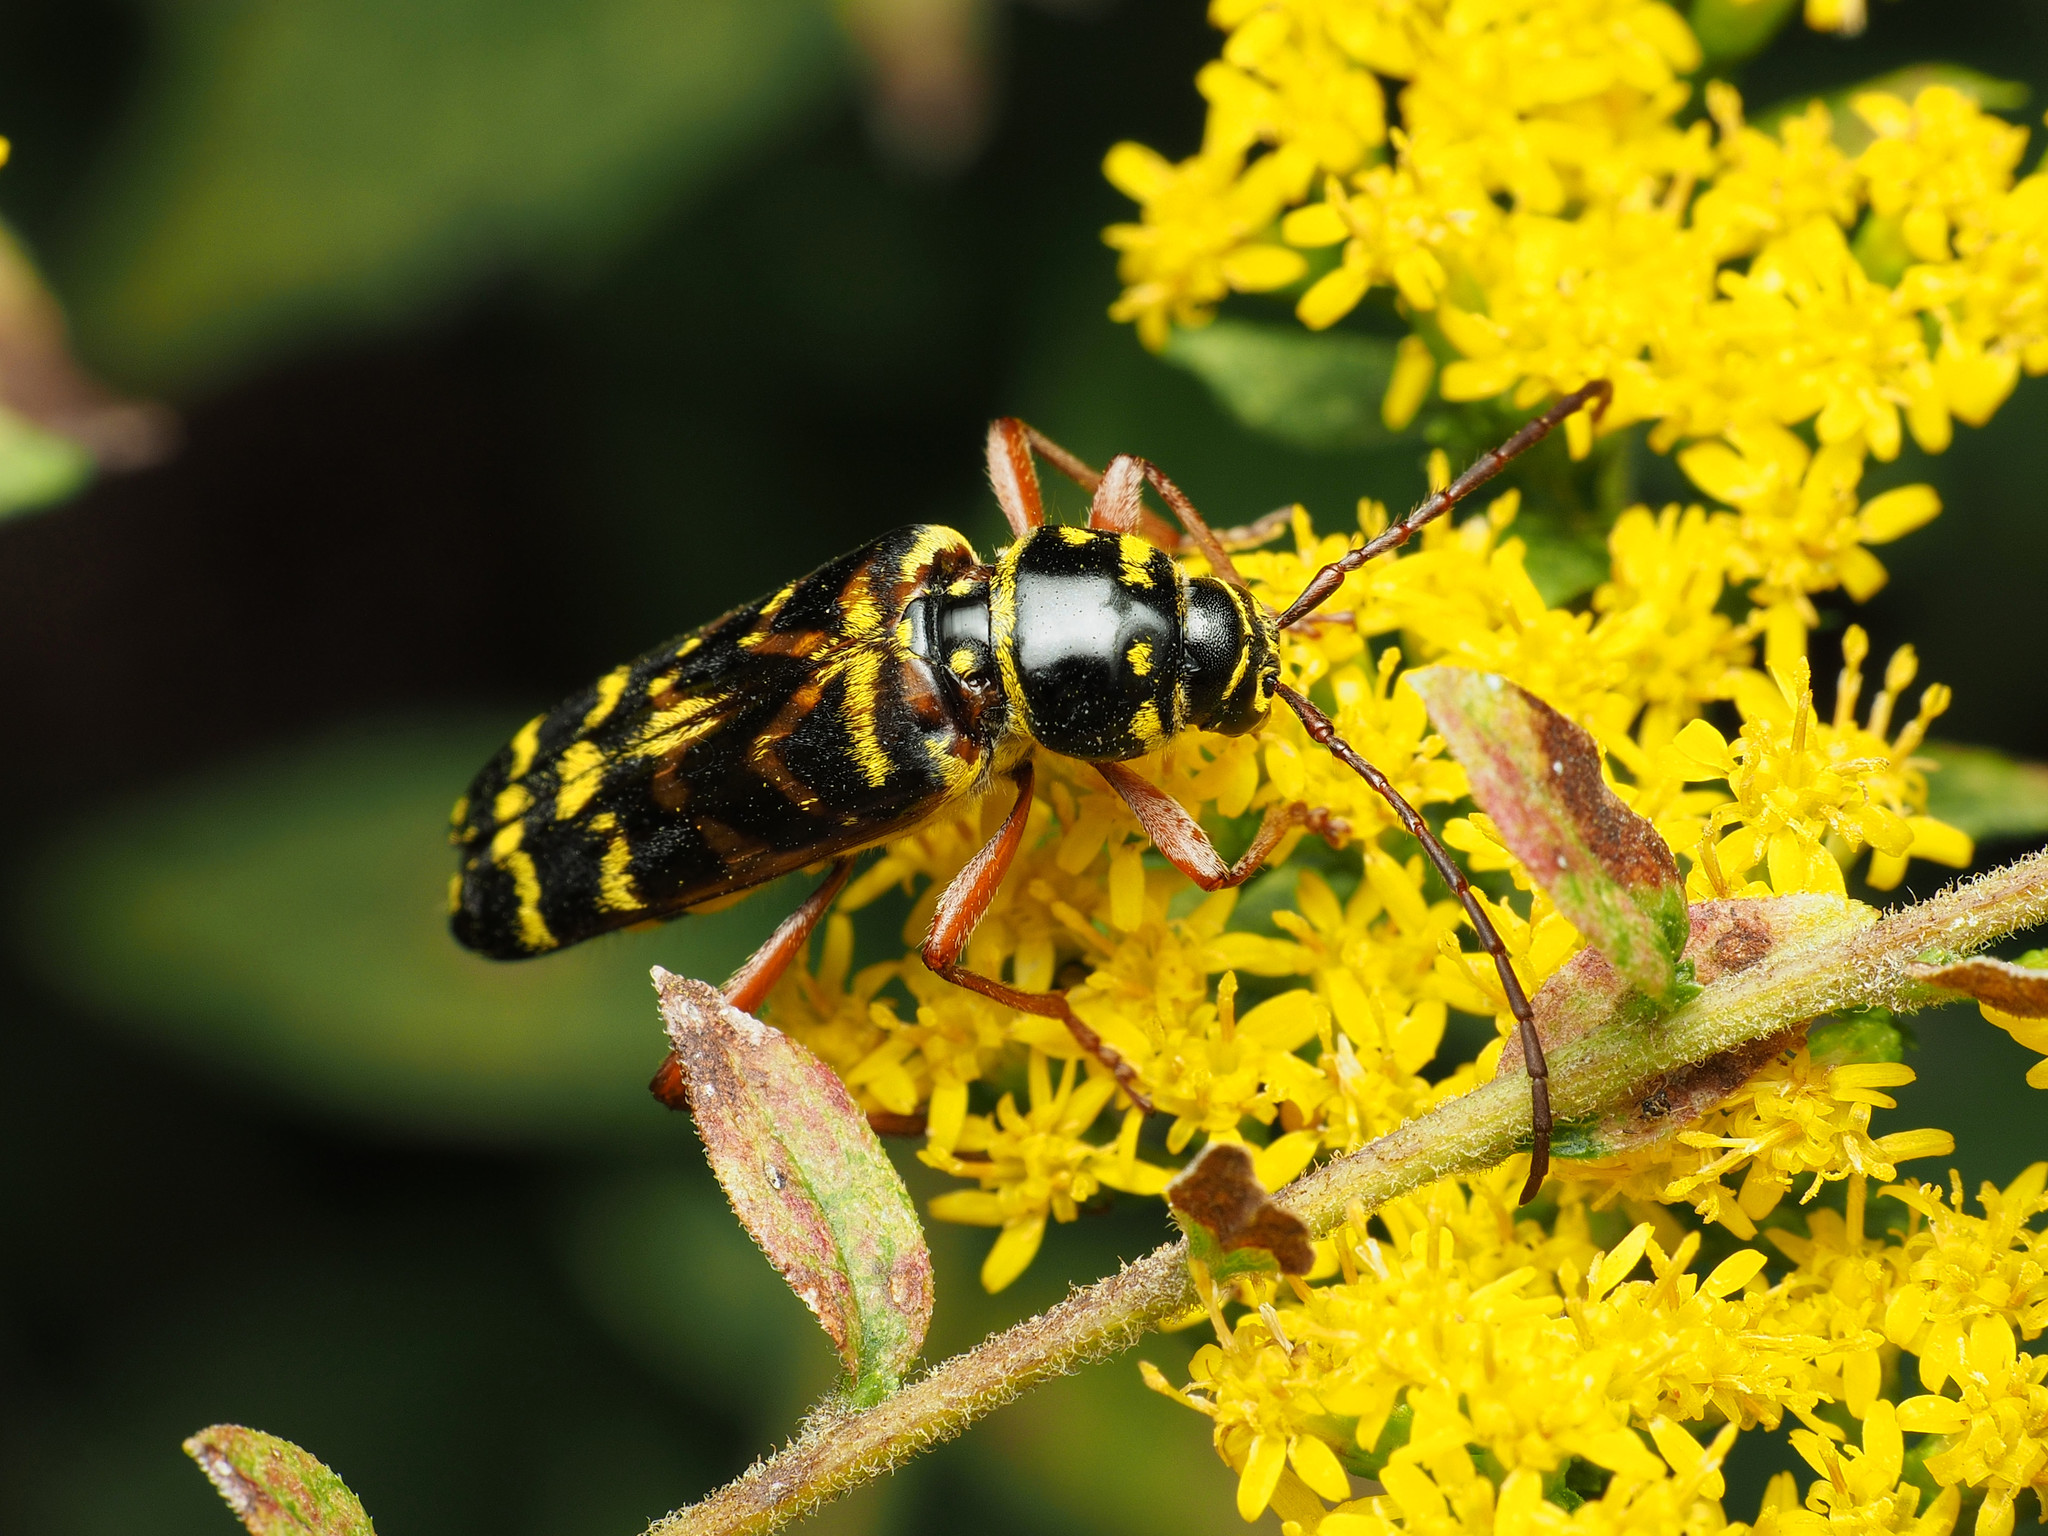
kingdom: Animalia
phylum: Arthropoda
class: Insecta
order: Coleoptera
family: Cerambycidae
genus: Megacyllene
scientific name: Megacyllene robiniae
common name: Locust borer
